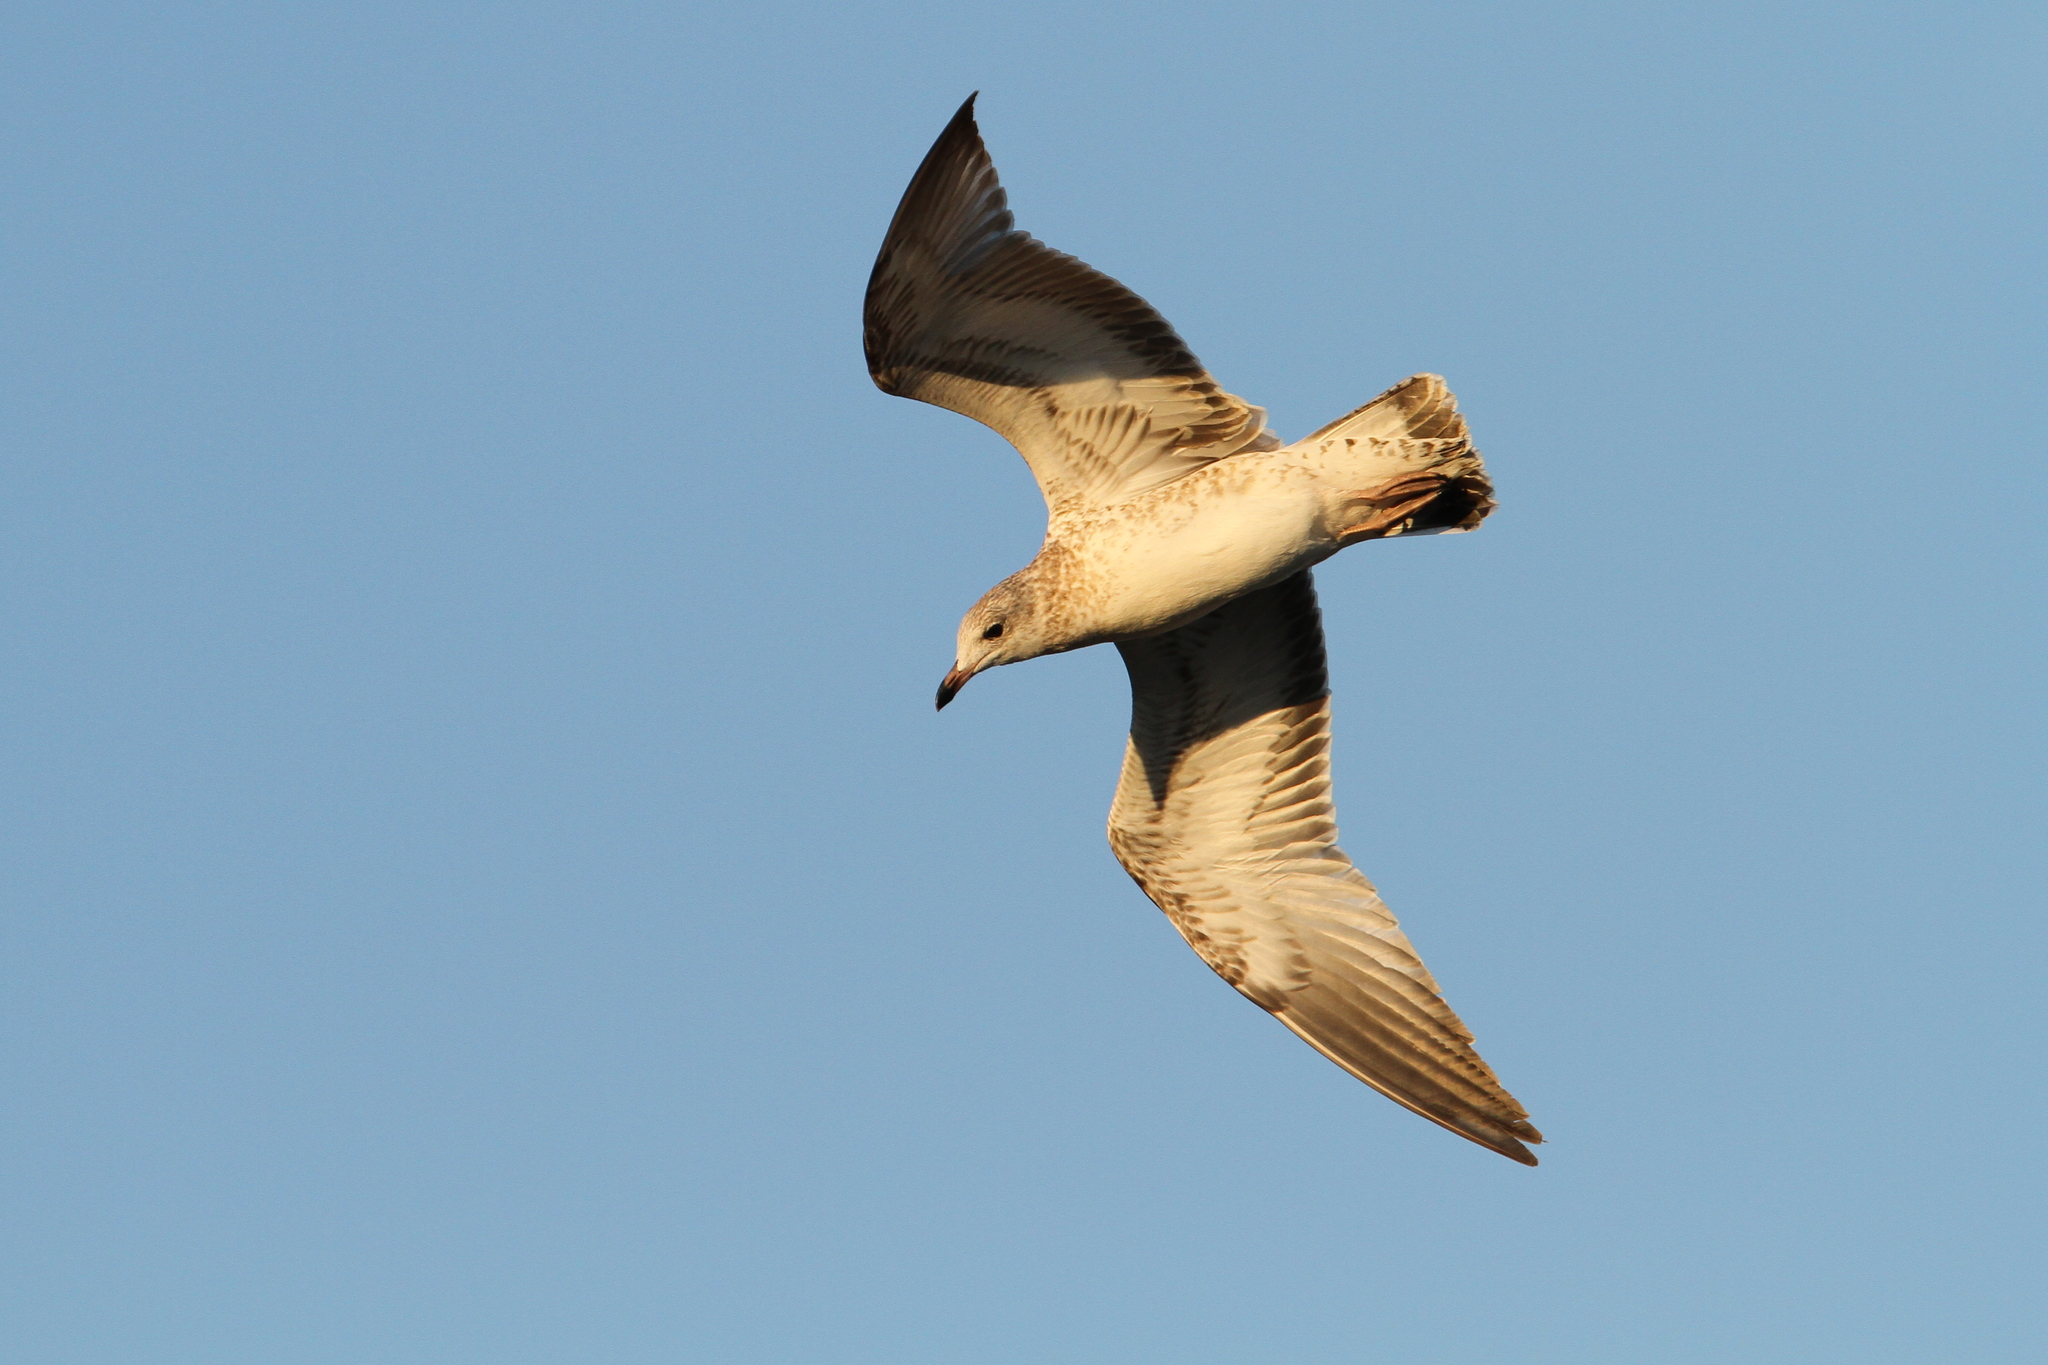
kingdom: Animalia
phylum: Chordata
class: Aves
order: Charadriiformes
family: Laridae
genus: Larus
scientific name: Larus delawarensis
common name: Ring-billed gull
